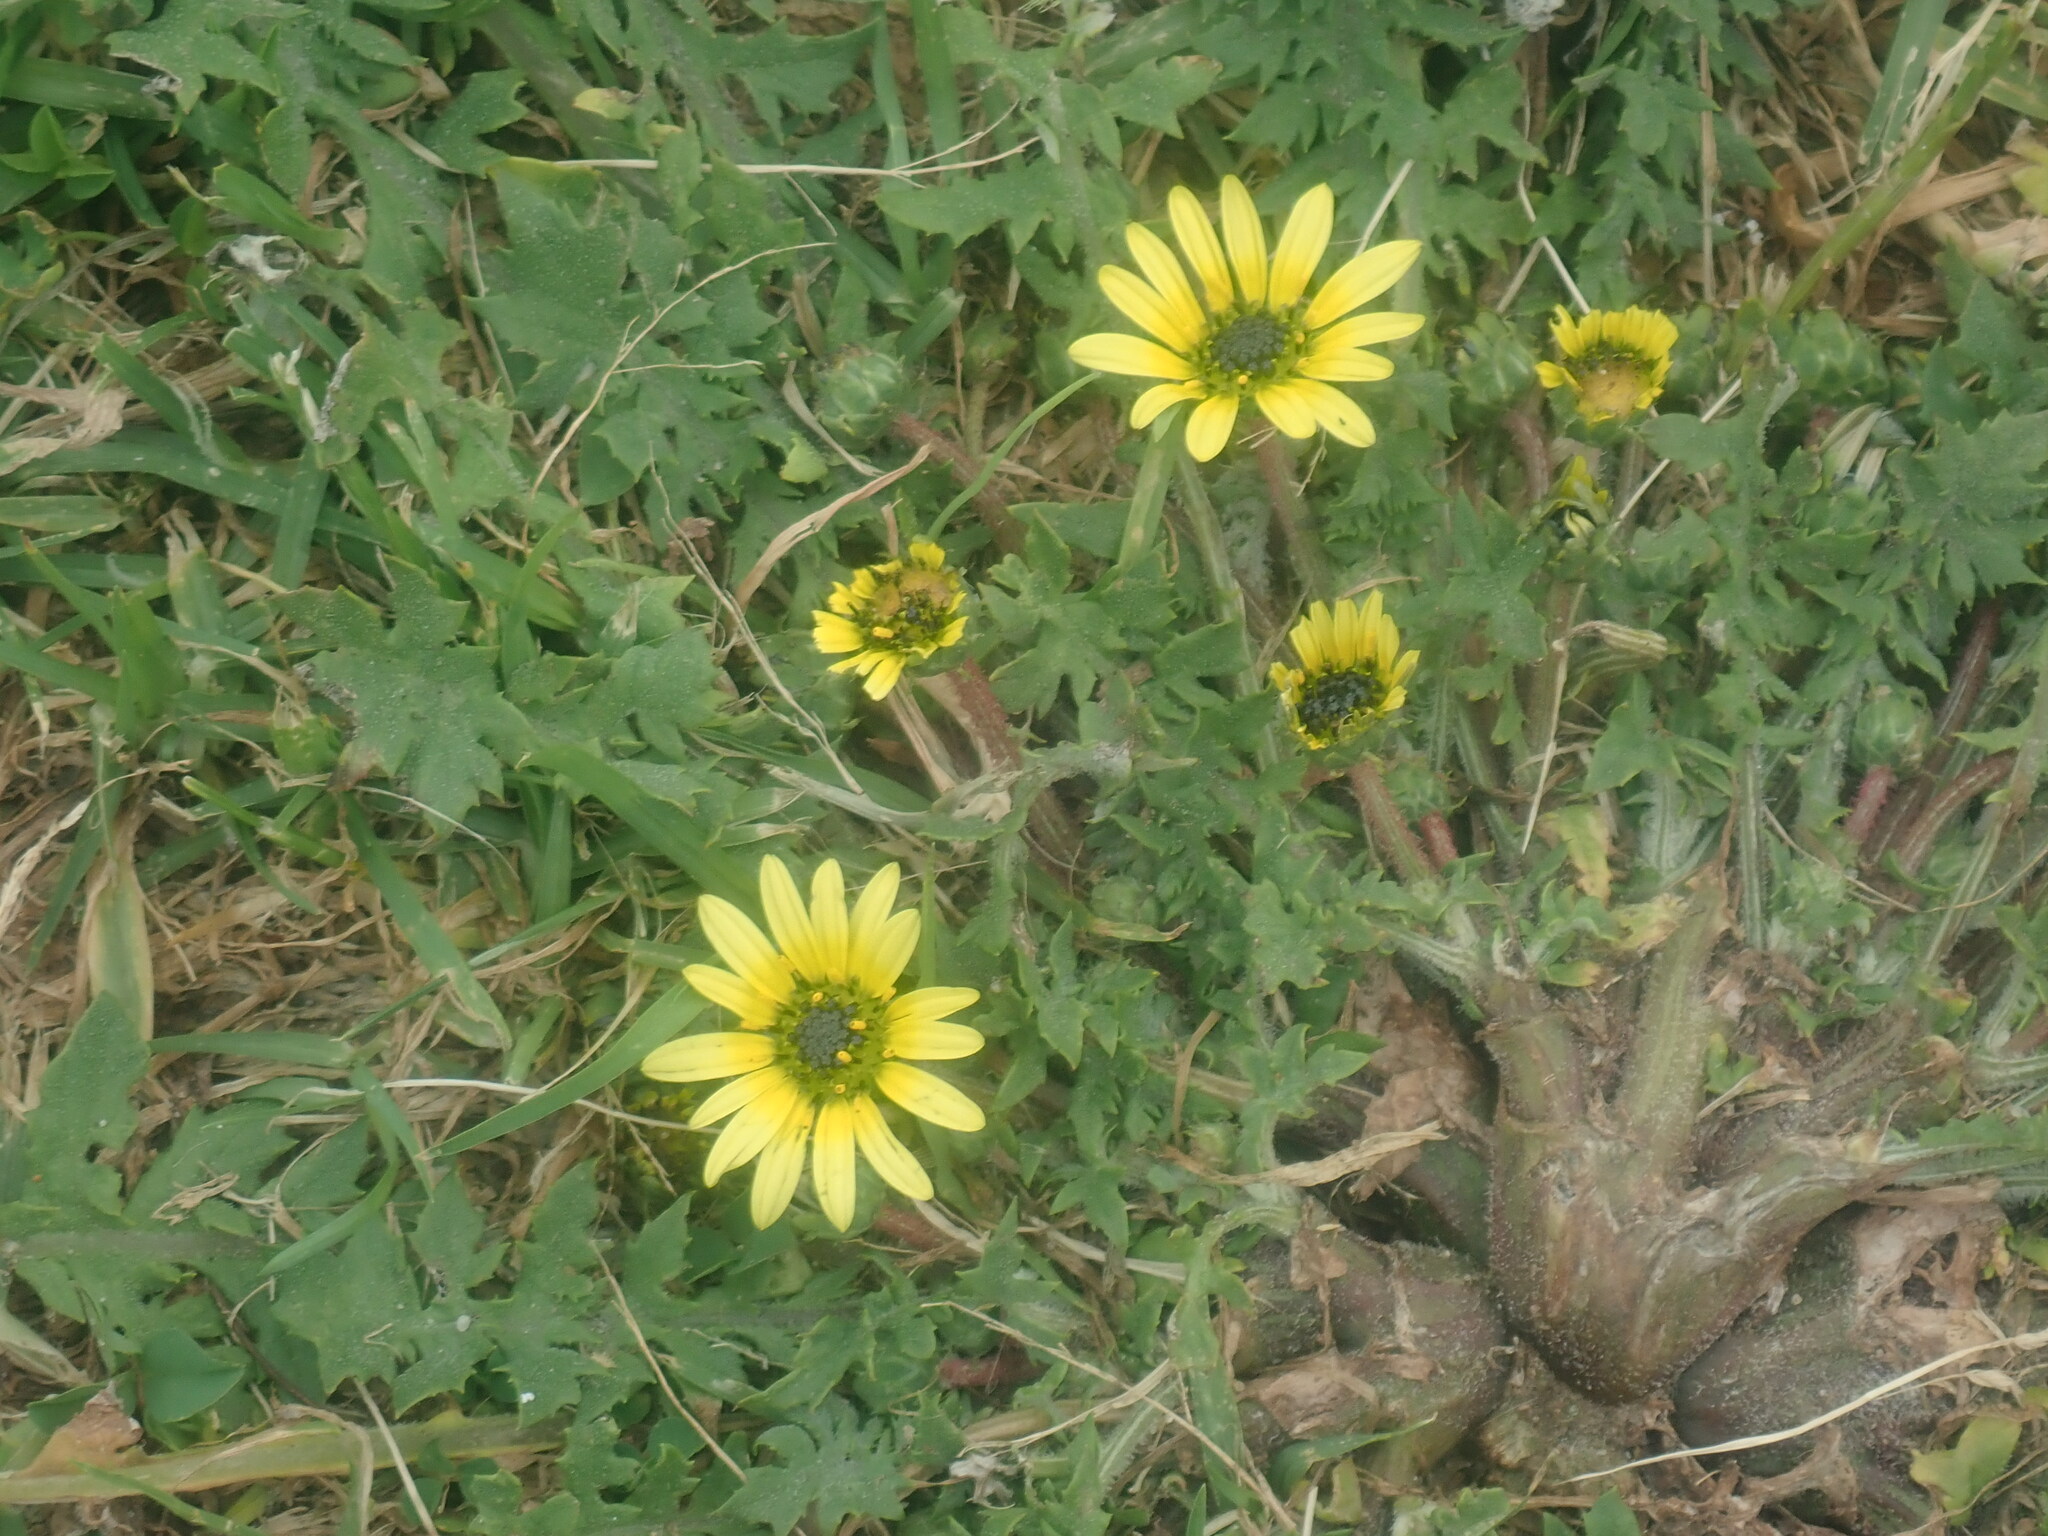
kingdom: Plantae
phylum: Tracheophyta
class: Magnoliopsida
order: Asterales
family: Asteraceae
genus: Arctotheca
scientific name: Arctotheca calendula
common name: Capeweed
